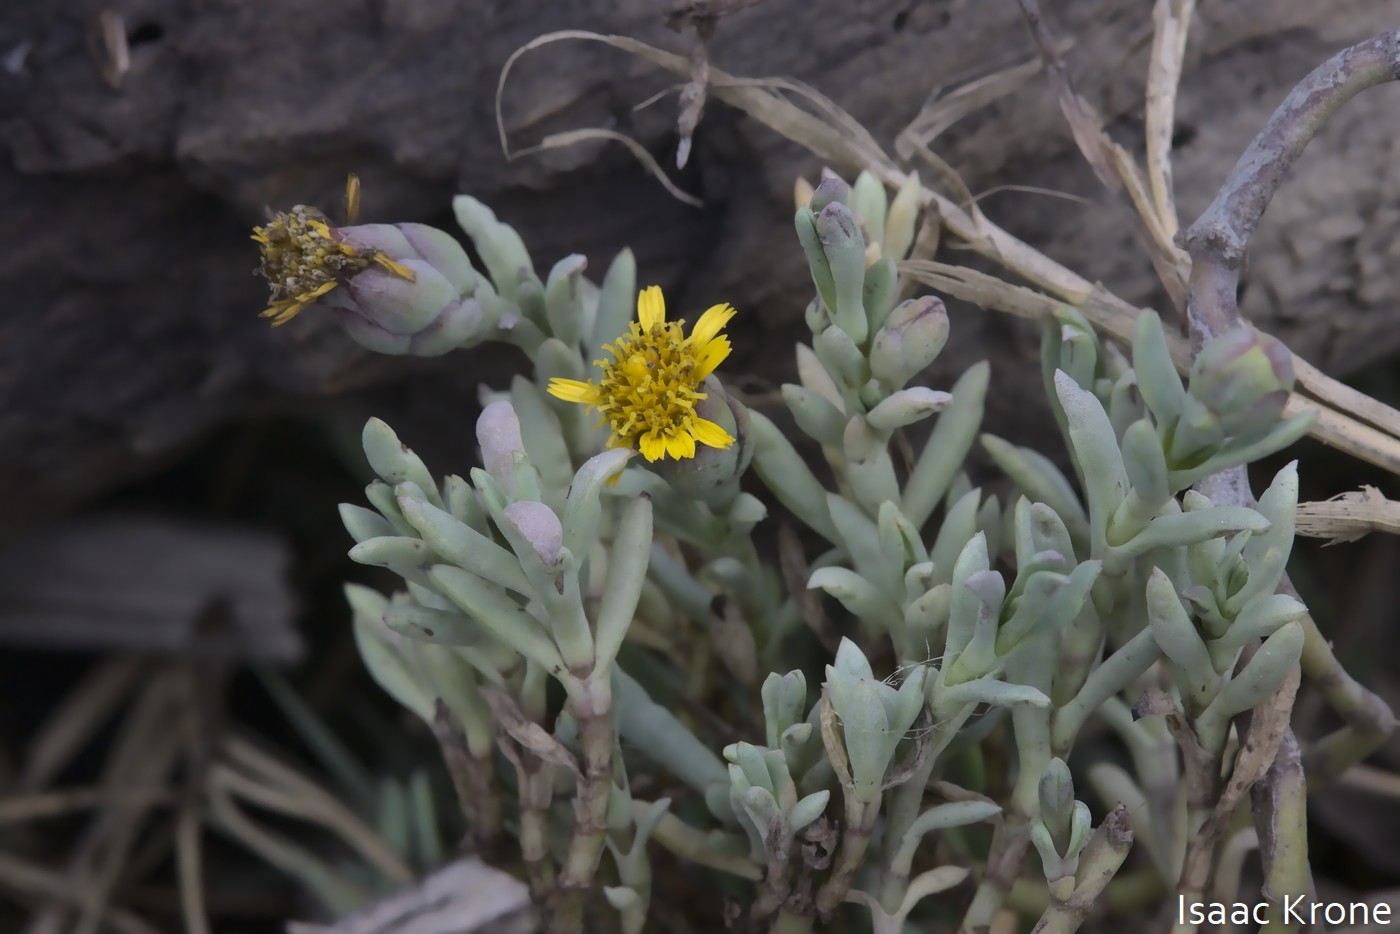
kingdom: Plantae
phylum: Tracheophyta
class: Magnoliopsida
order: Asterales
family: Asteraceae
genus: Jaumea
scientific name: Jaumea carnosa
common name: Fleshy jaumea
